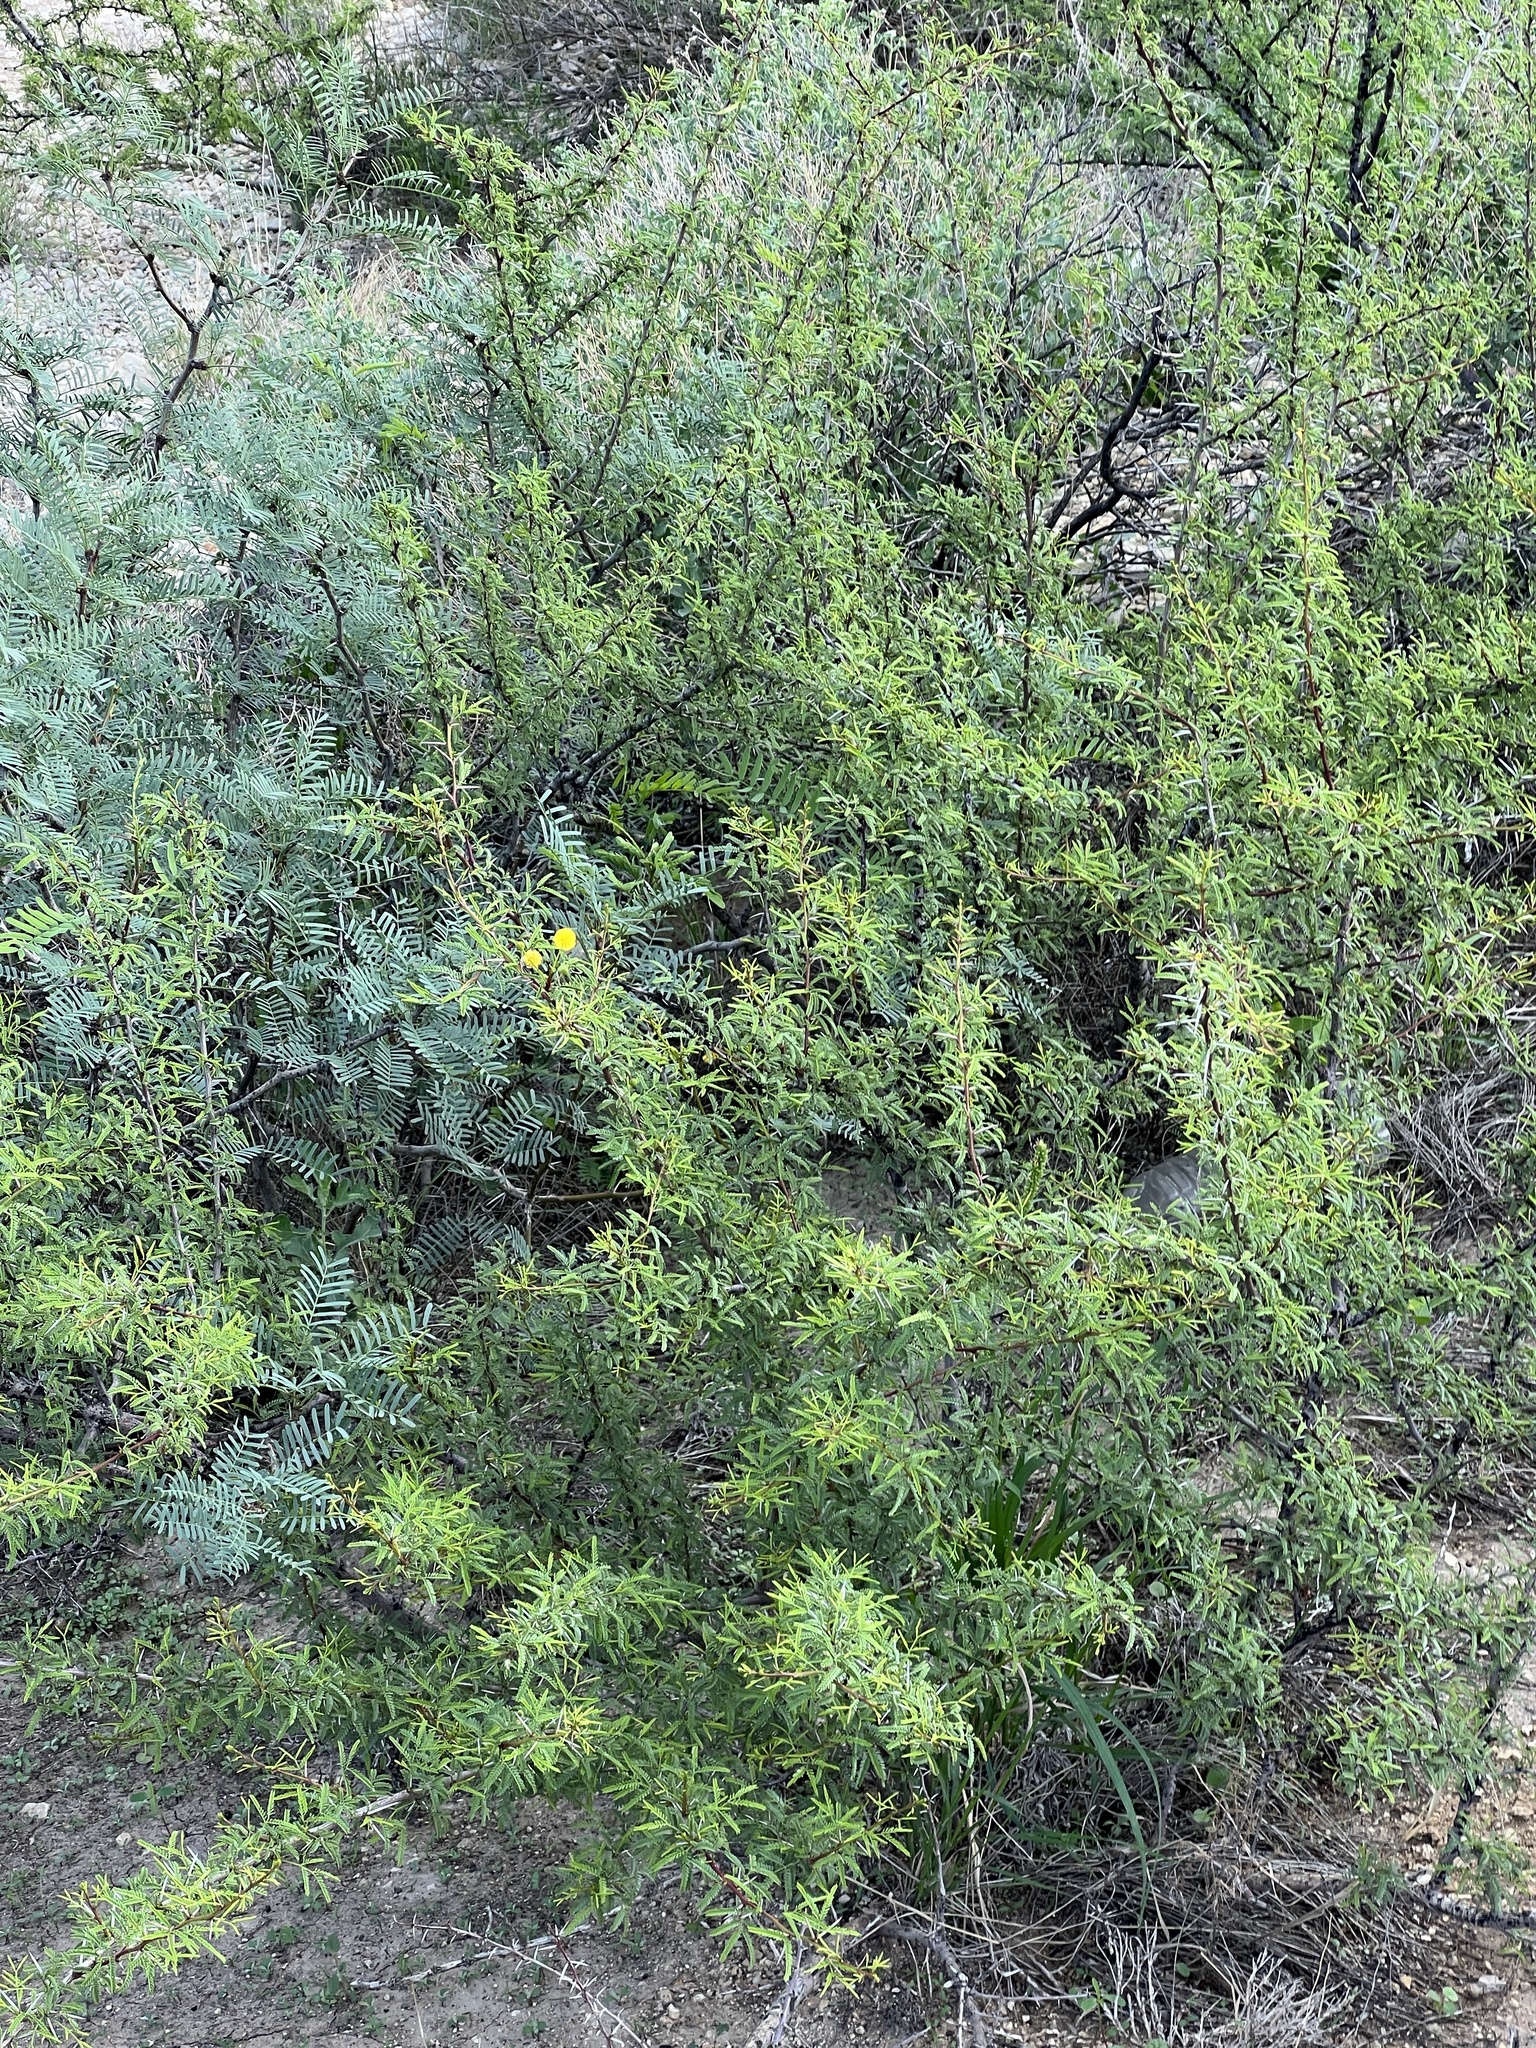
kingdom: Plantae
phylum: Tracheophyta
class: Magnoliopsida
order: Fabales
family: Fabaceae
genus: Vachellia
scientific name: Vachellia vernicosa
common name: Viscid acacia
